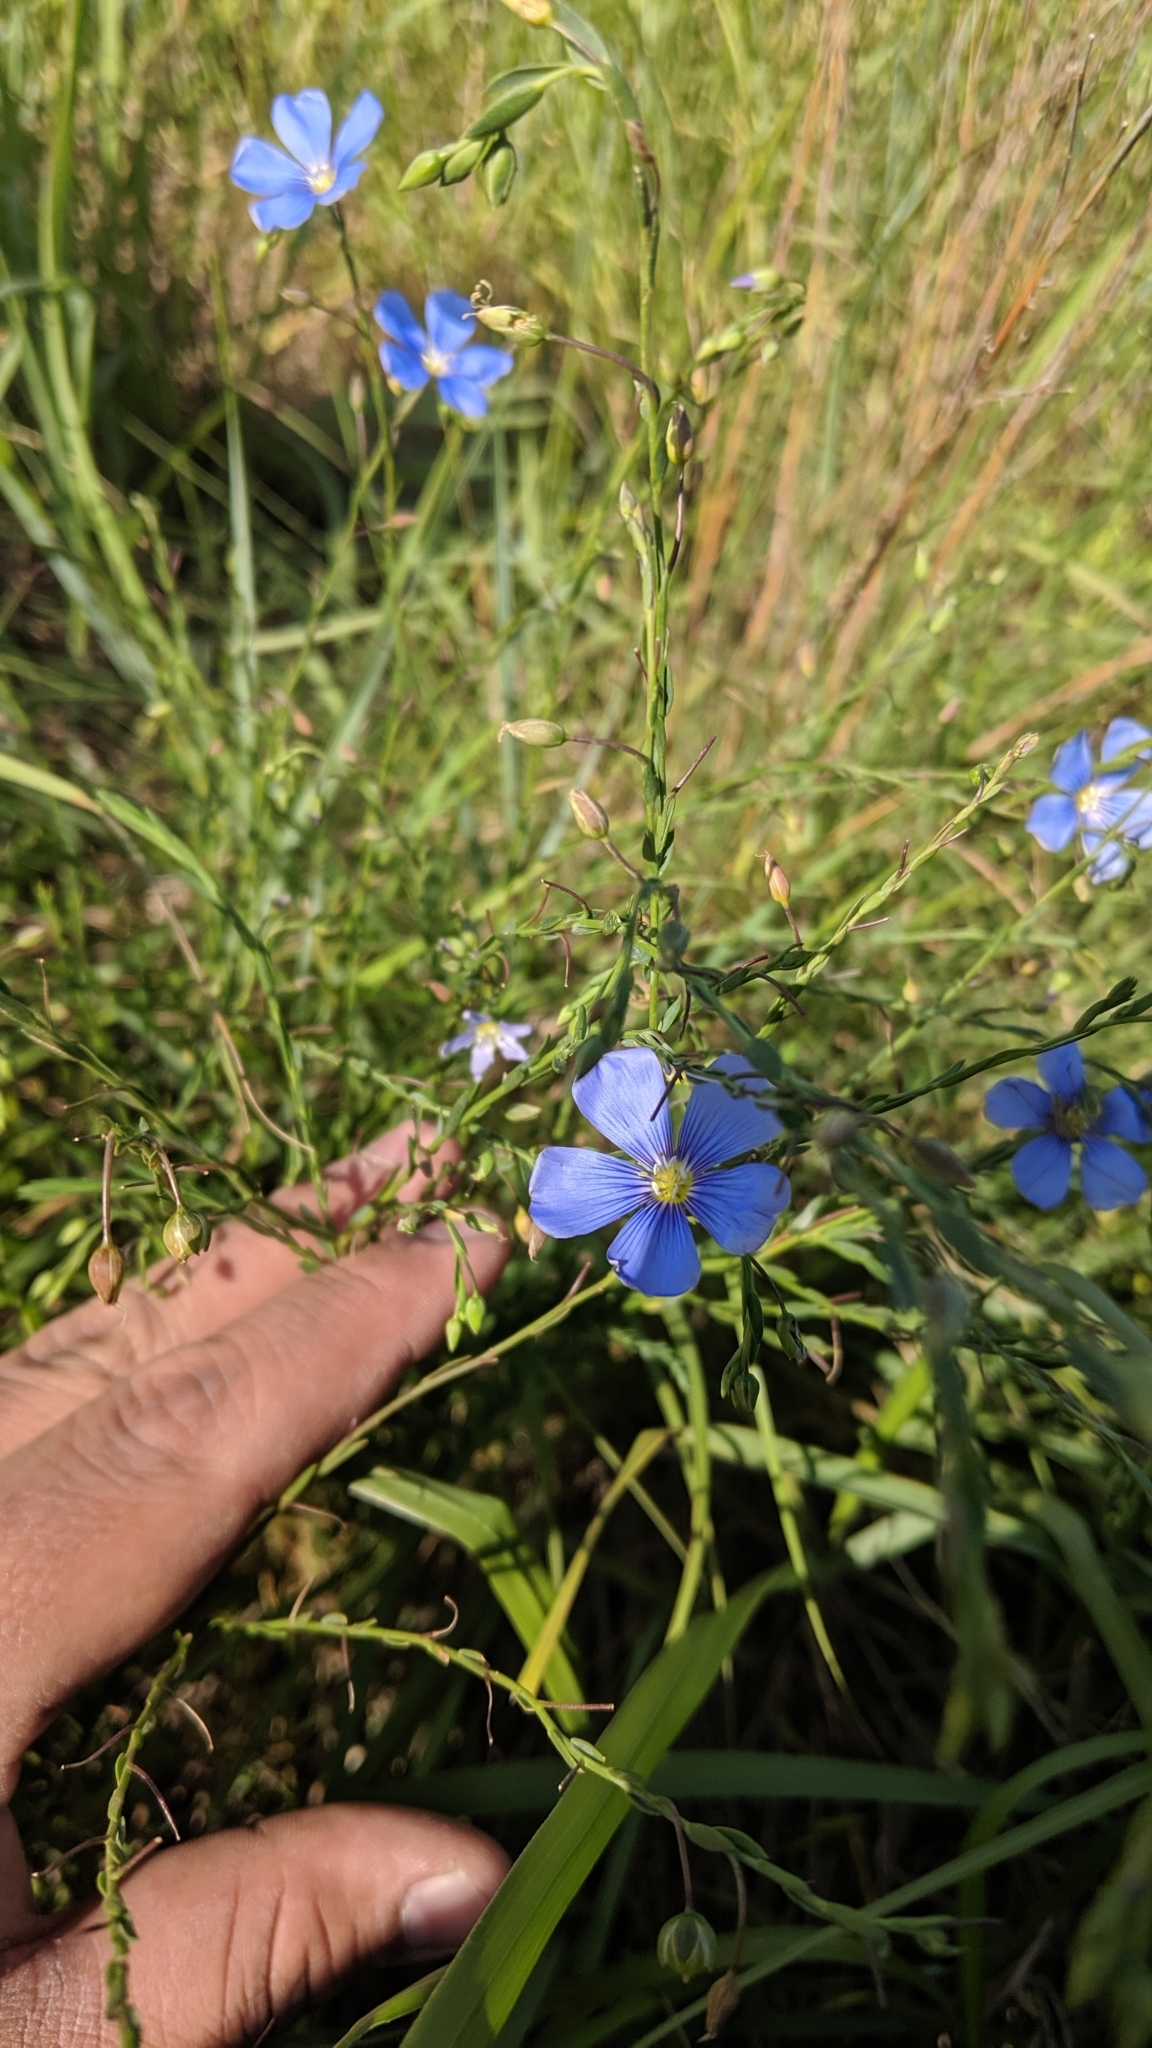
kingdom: Plantae
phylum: Tracheophyta
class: Magnoliopsida
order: Malpighiales
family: Linaceae
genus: Linum
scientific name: Linum usitatissimum
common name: Flax
